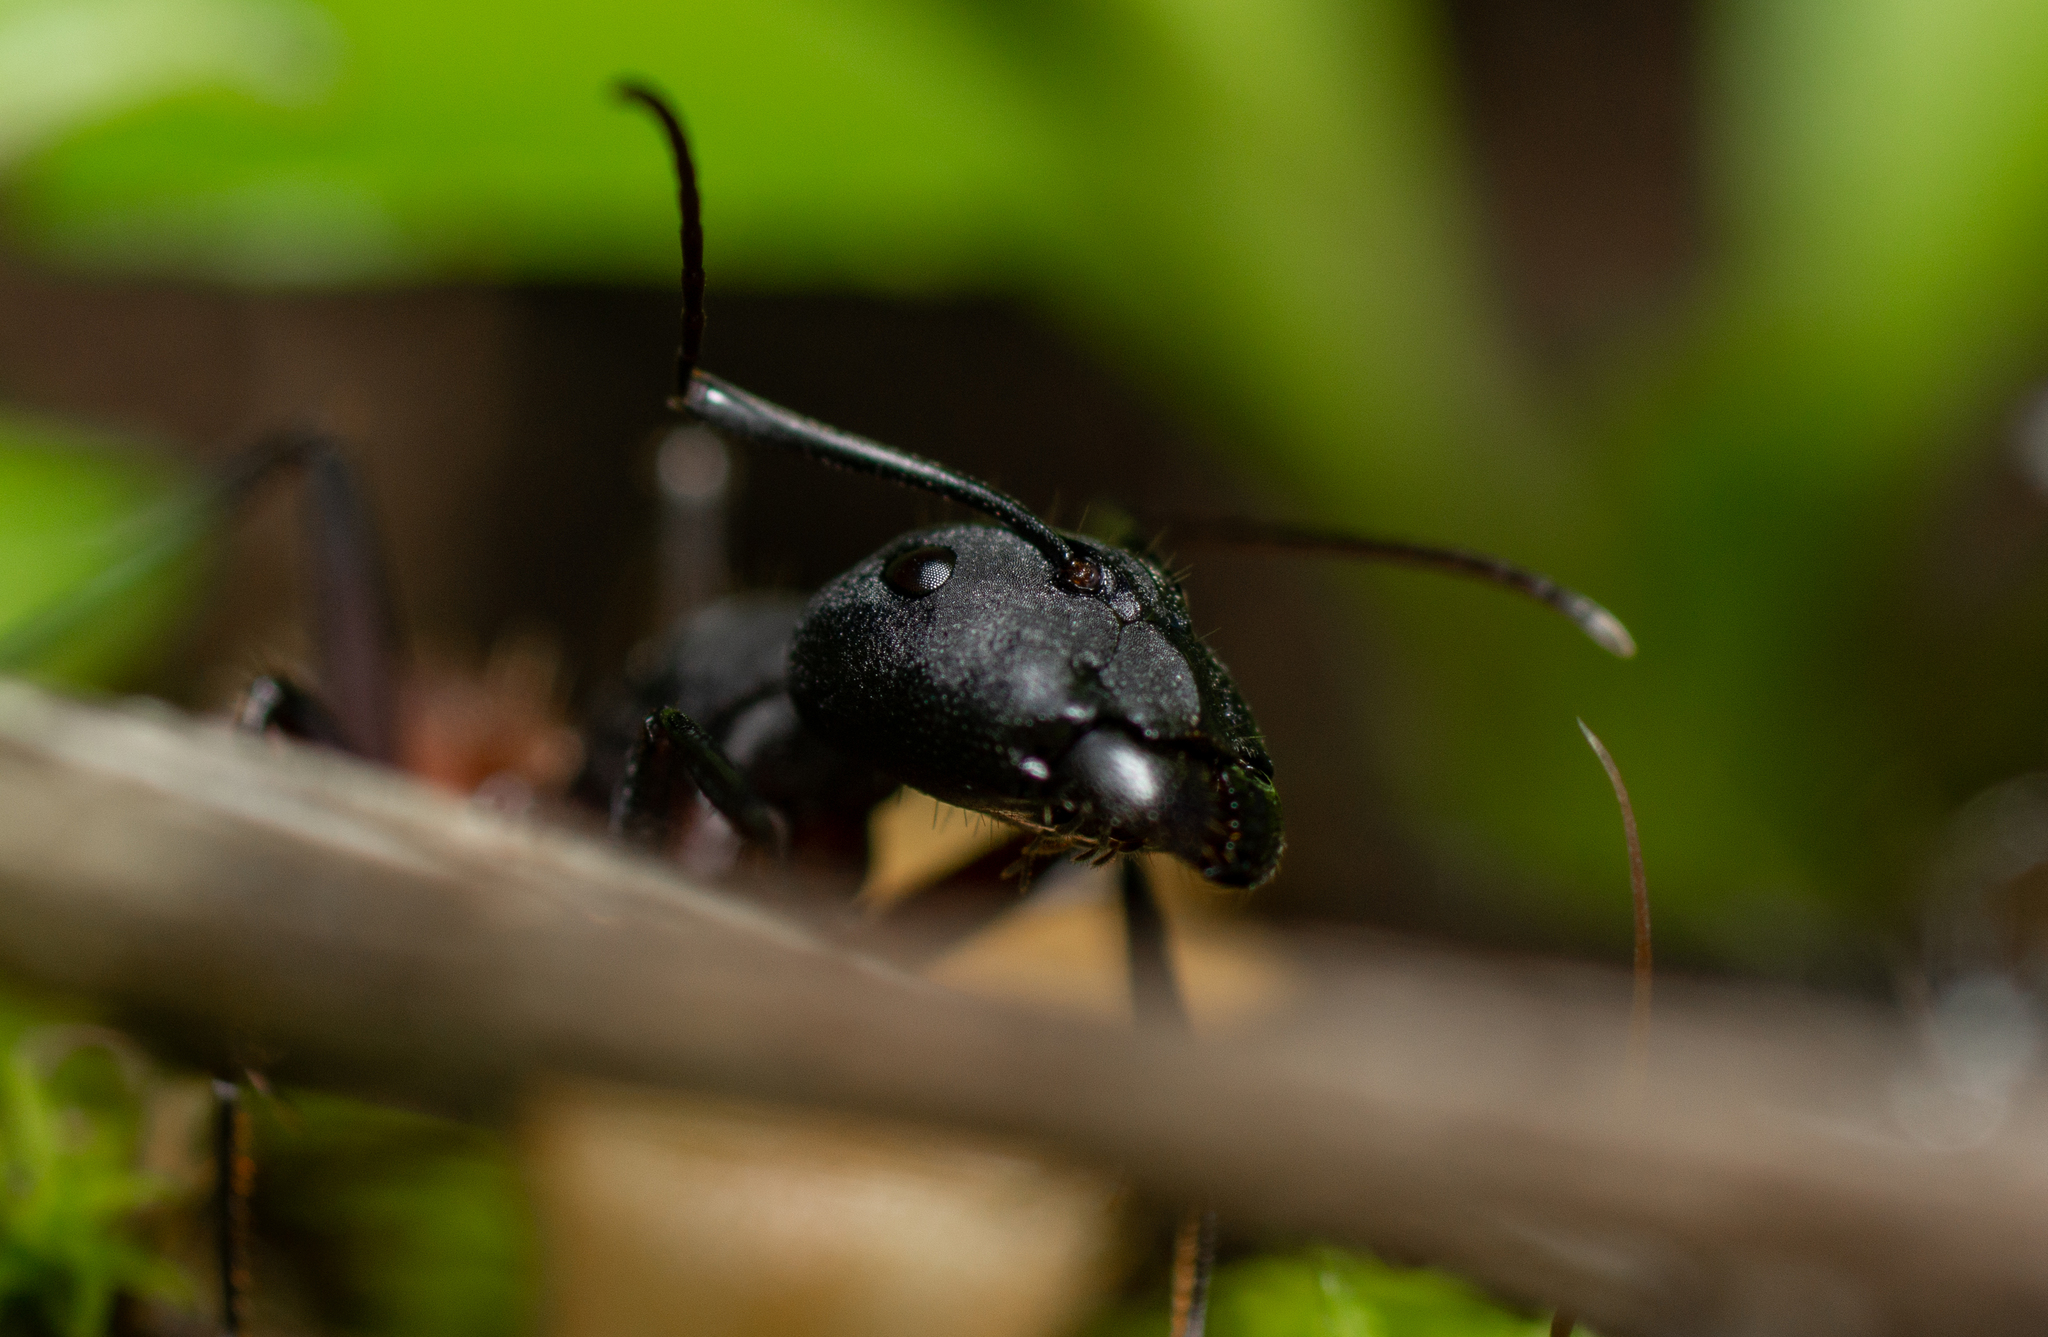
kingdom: Animalia
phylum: Arthropoda
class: Insecta
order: Hymenoptera
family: Formicidae
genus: Camponotus
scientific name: Camponotus cruentatus
